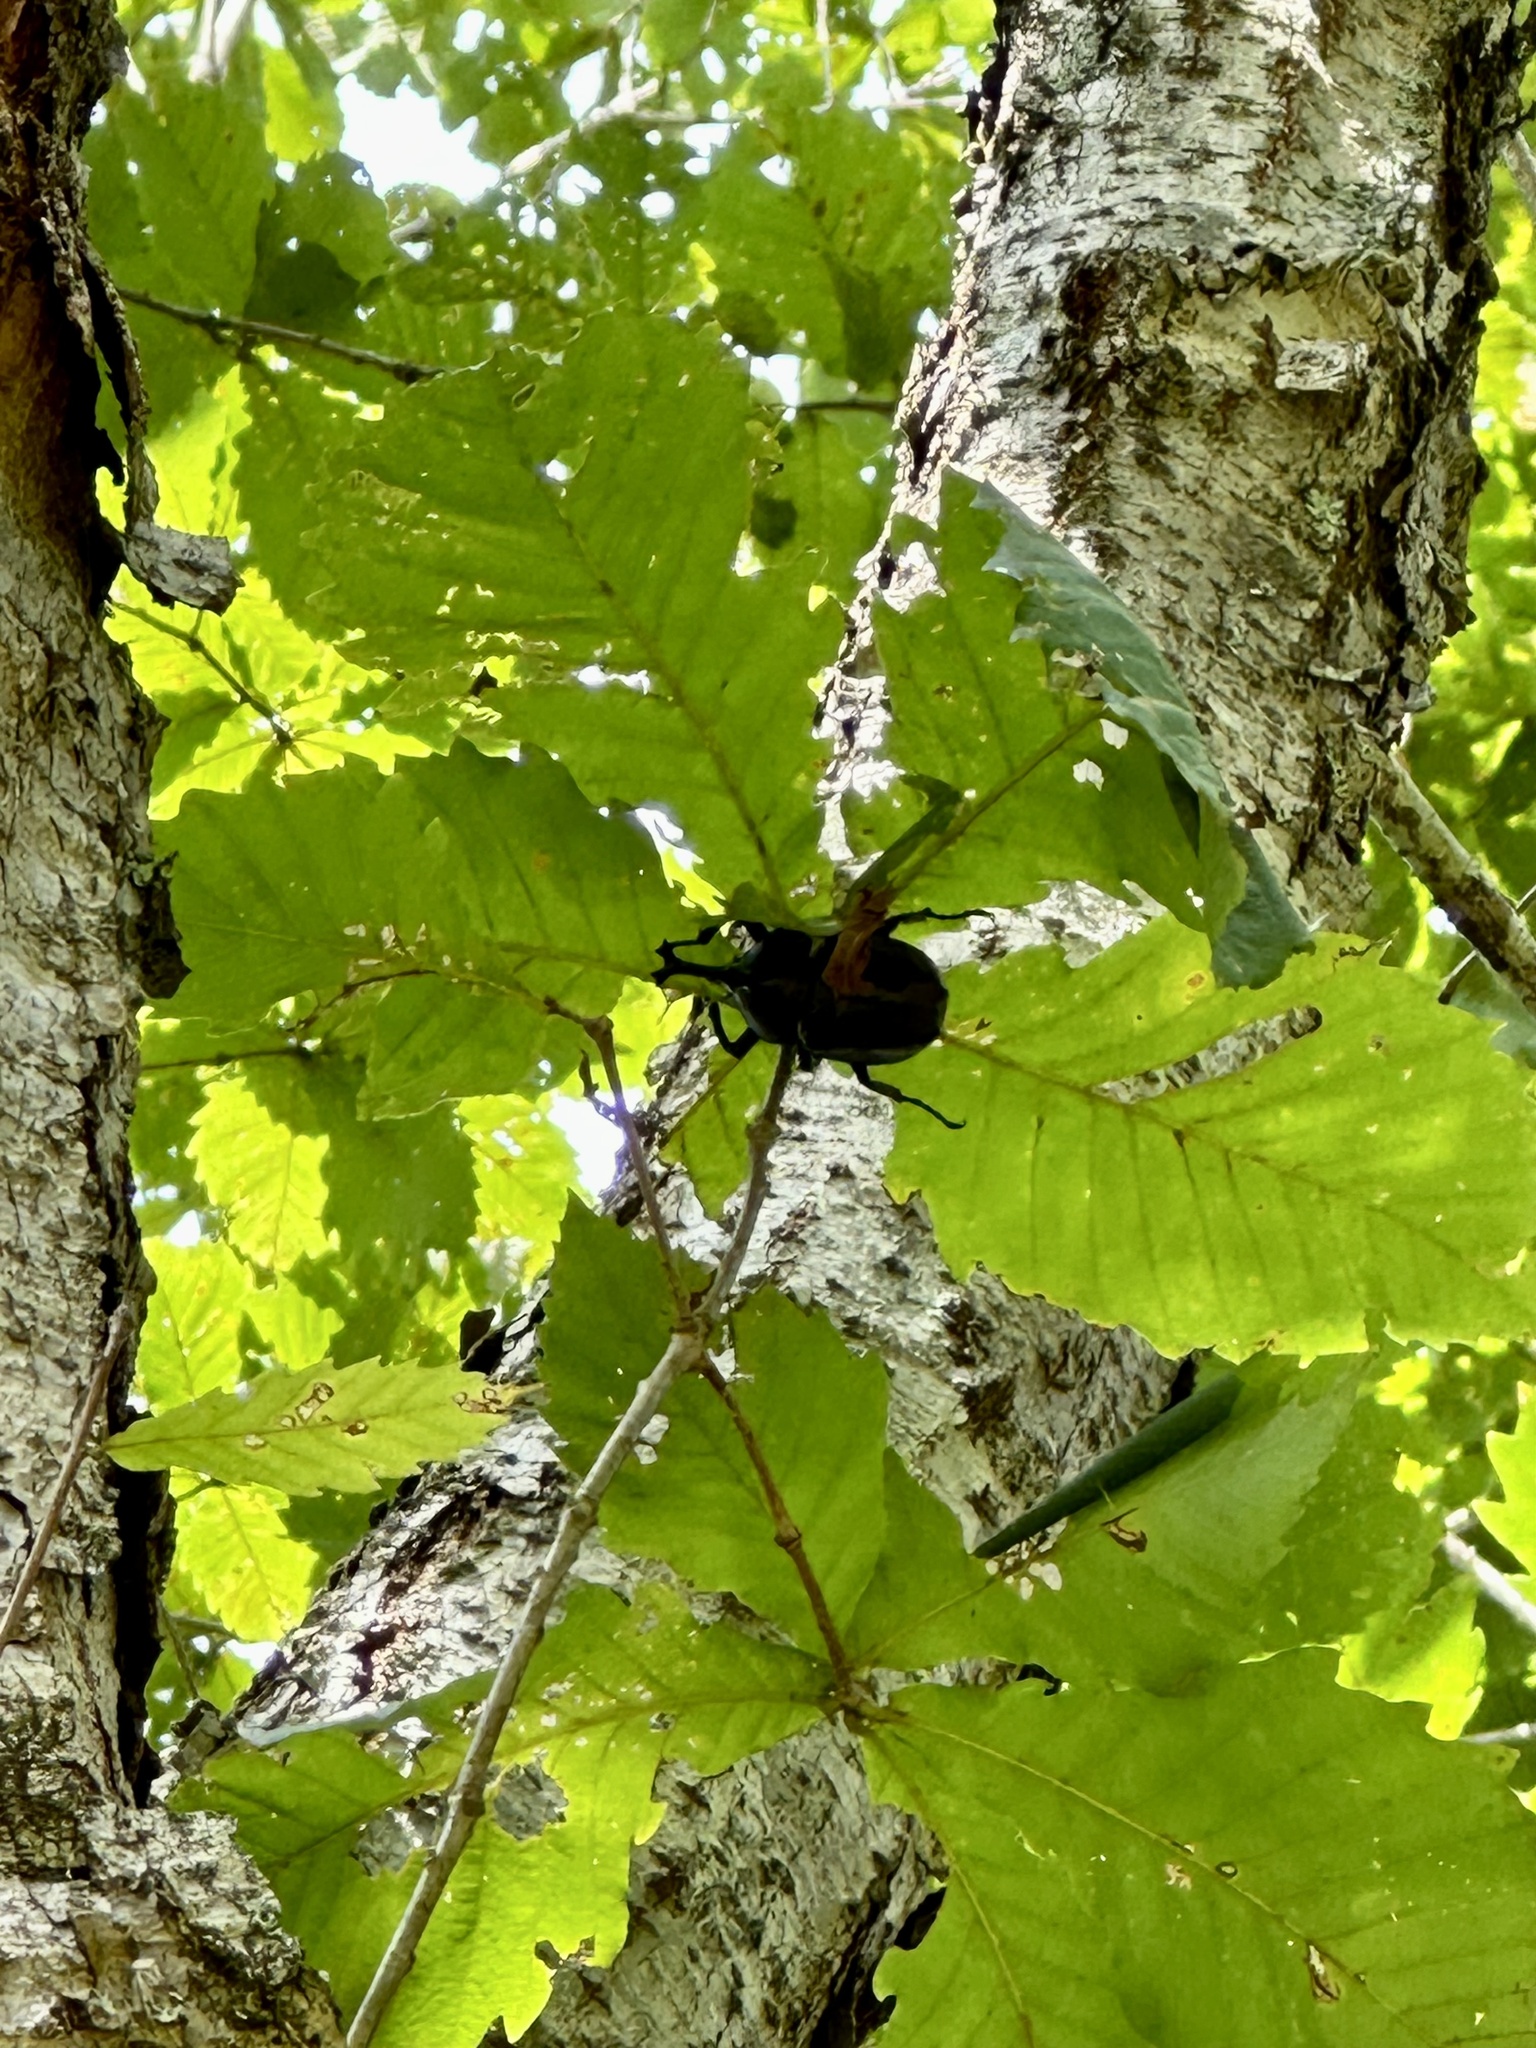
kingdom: Animalia
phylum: Arthropoda
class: Insecta
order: Coleoptera
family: Scarabaeidae
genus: Trypoxylus
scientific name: Trypoxylus dichotomus
